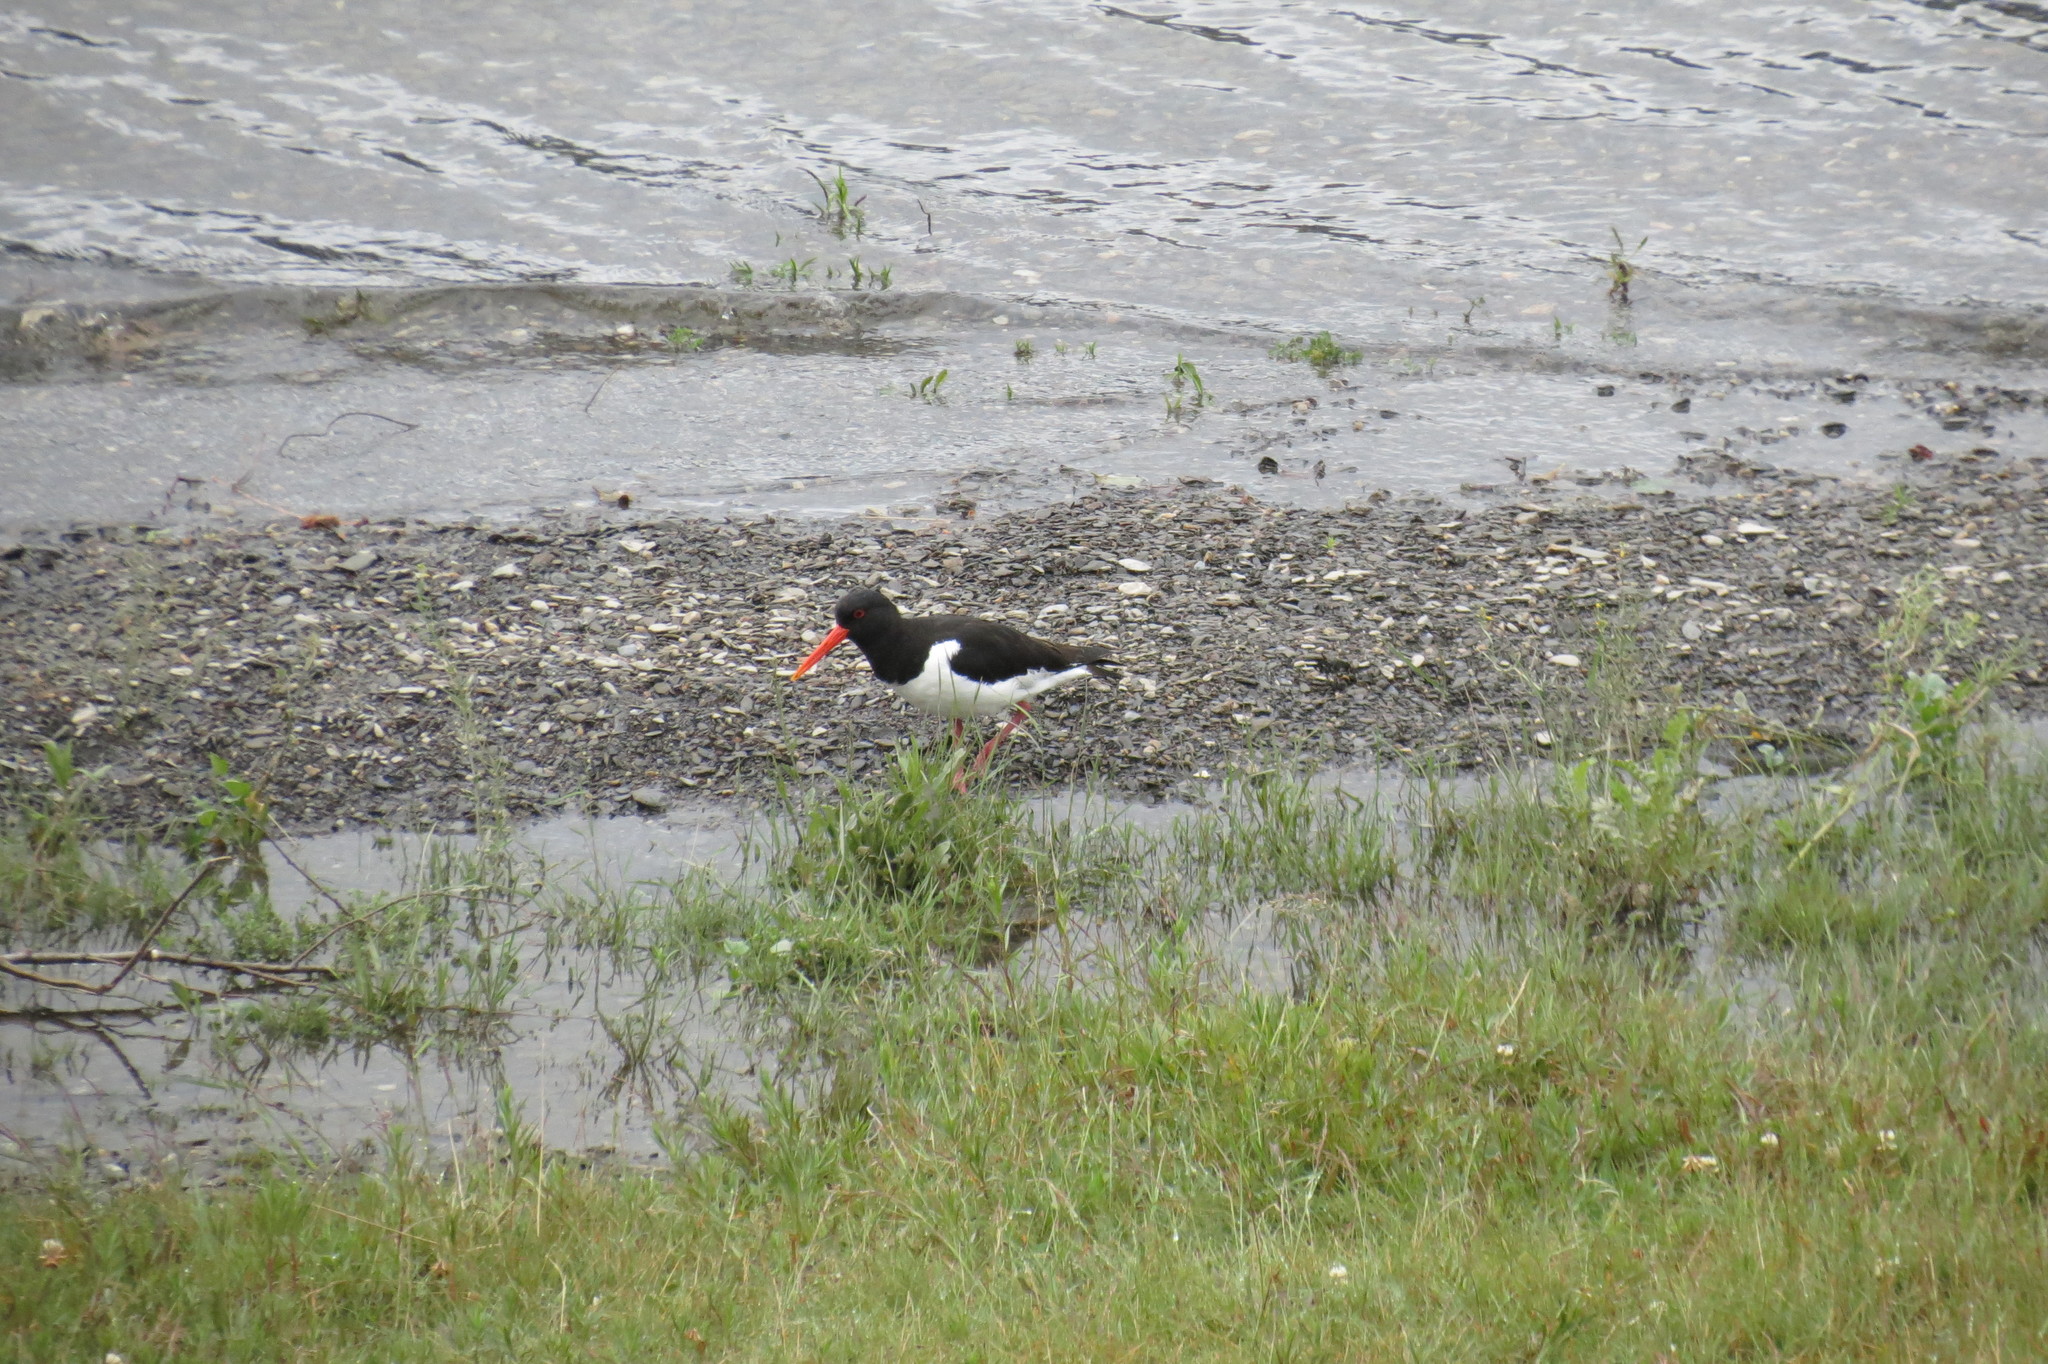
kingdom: Animalia
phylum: Chordata
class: Aves
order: Charadriiformes
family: Haematopodidae
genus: Haematopus
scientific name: Haematopus ostralegus
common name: Eurasian oystercatcher
